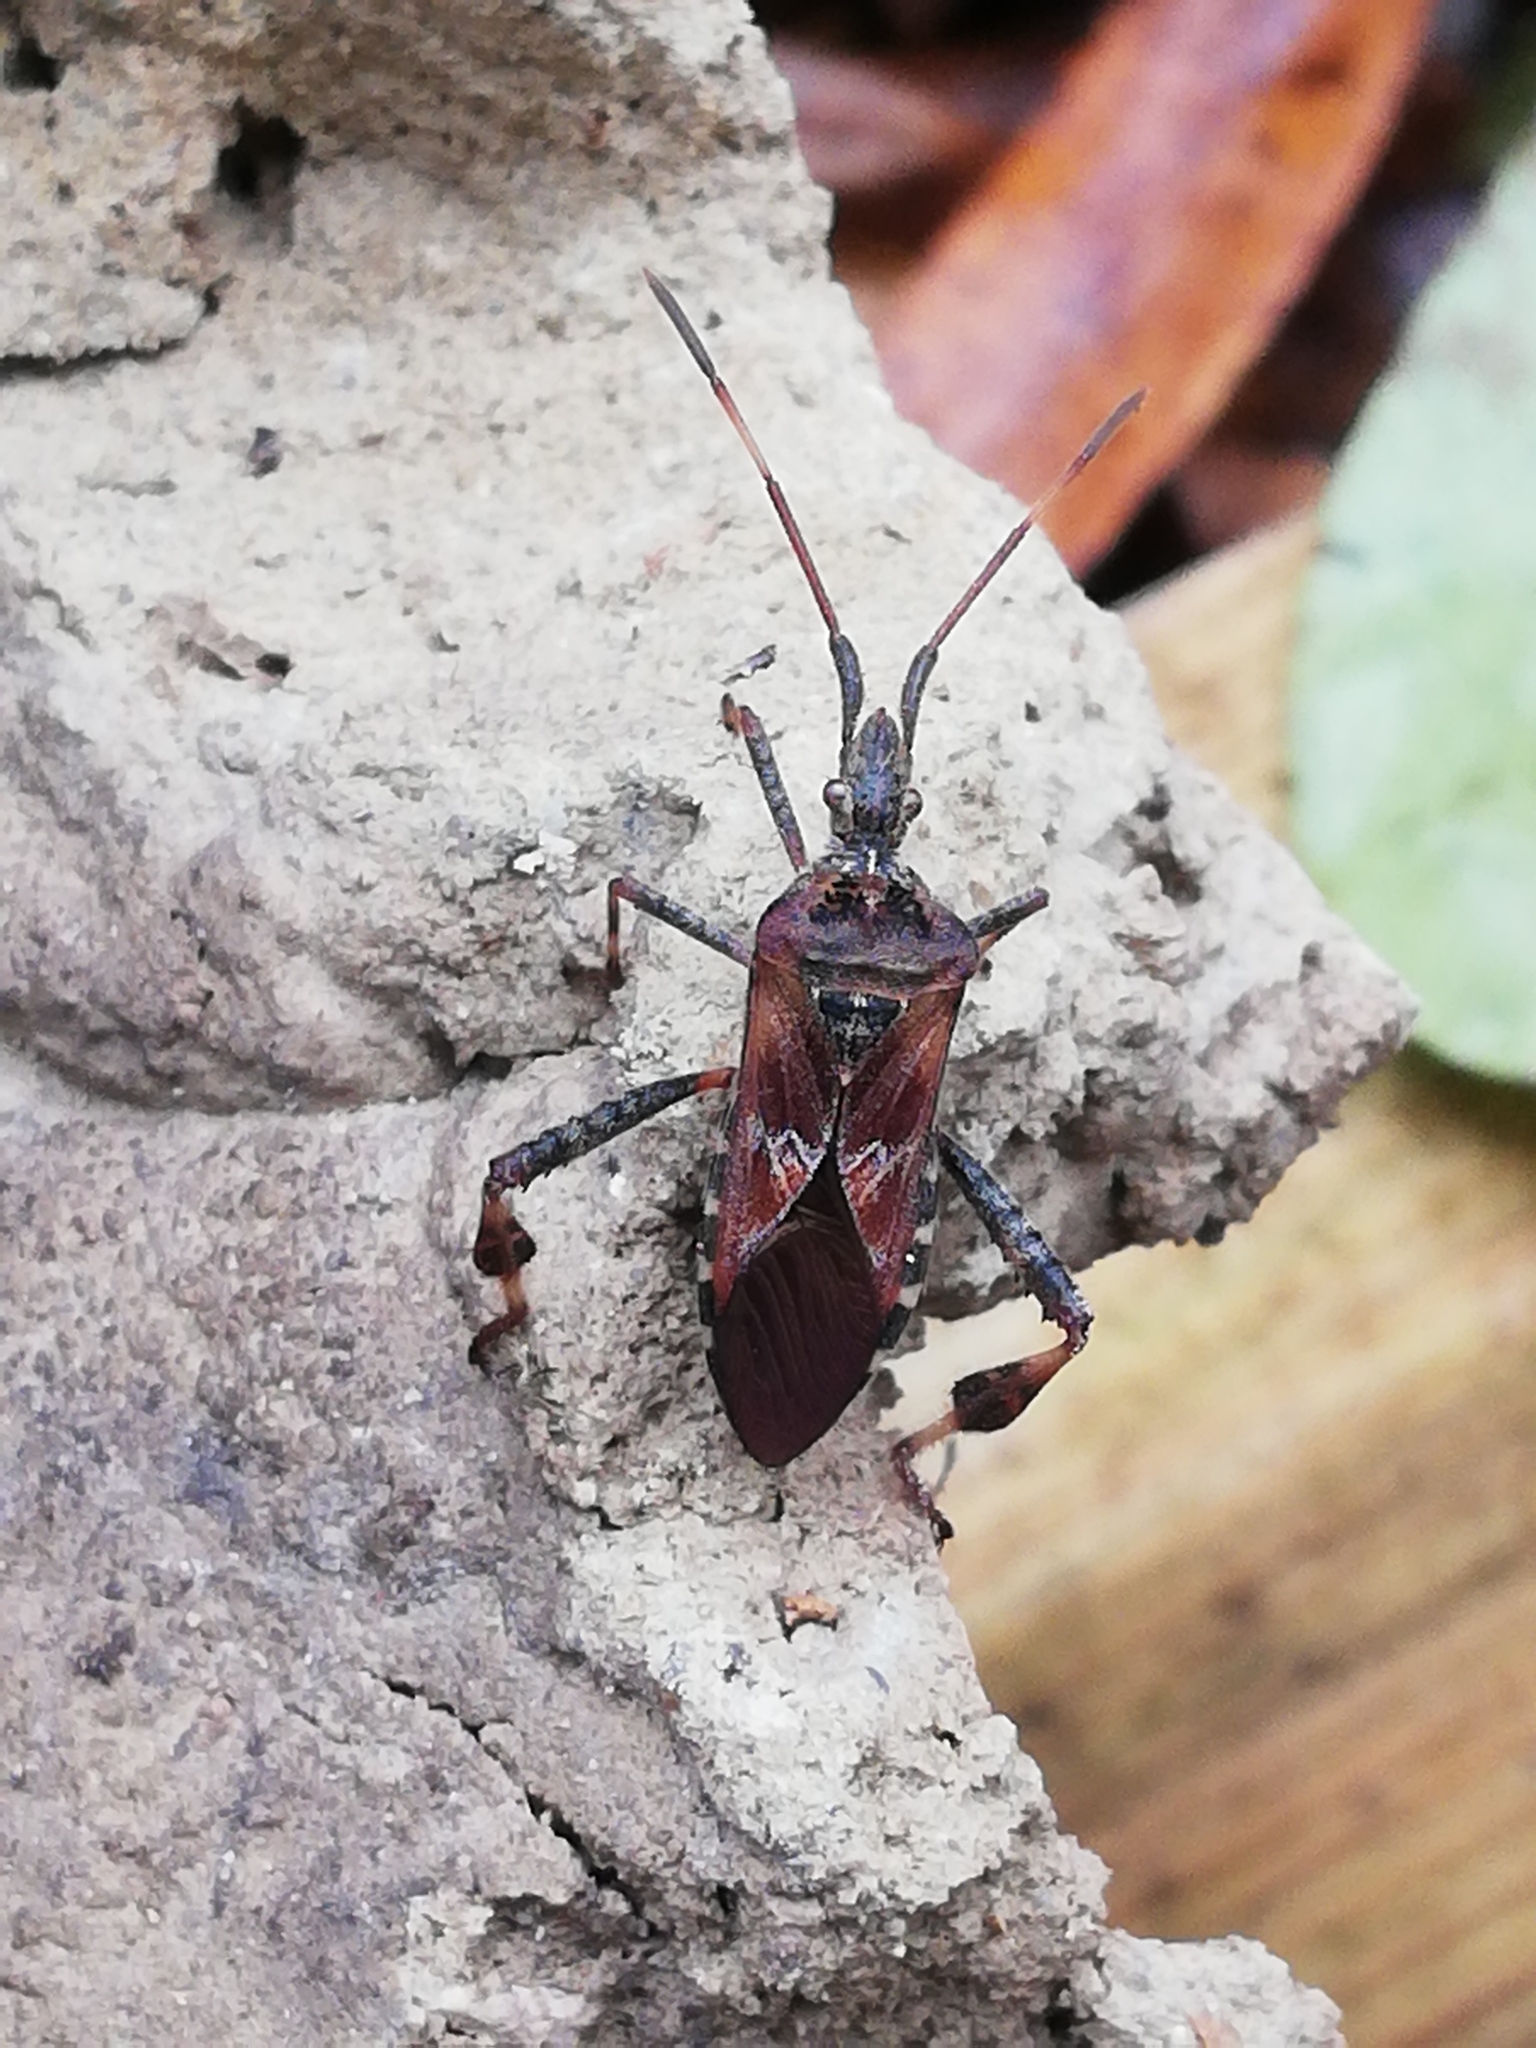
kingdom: Animalia
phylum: Arthropoda
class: Insecta
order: Hemiptera
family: Coreidae
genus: Leptoglossus
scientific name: Leptoglossus occidentalis
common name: Western conifer-seed bug
